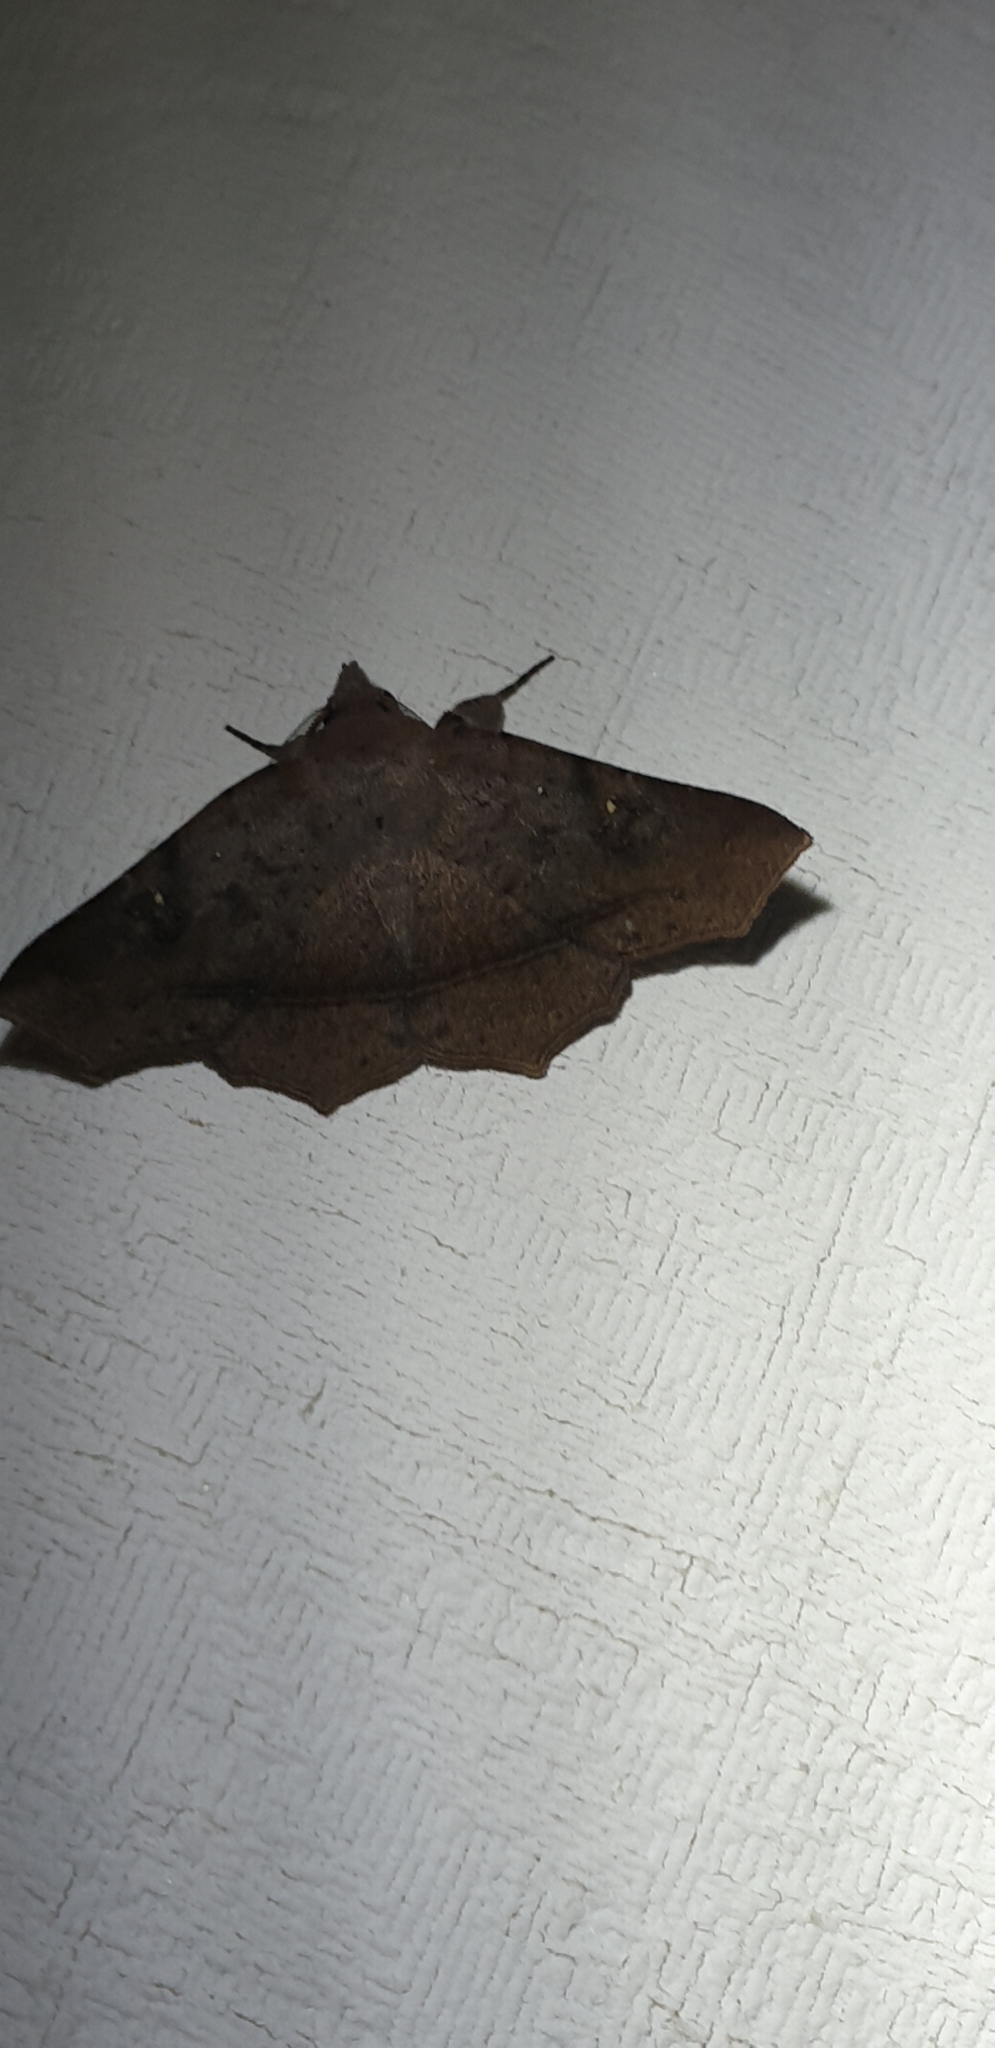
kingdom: Animalia
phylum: Arthropoda
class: Insecta
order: Lepidoptera
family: Erebidae
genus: Amphiongia
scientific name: Amphiongia chordophoides
